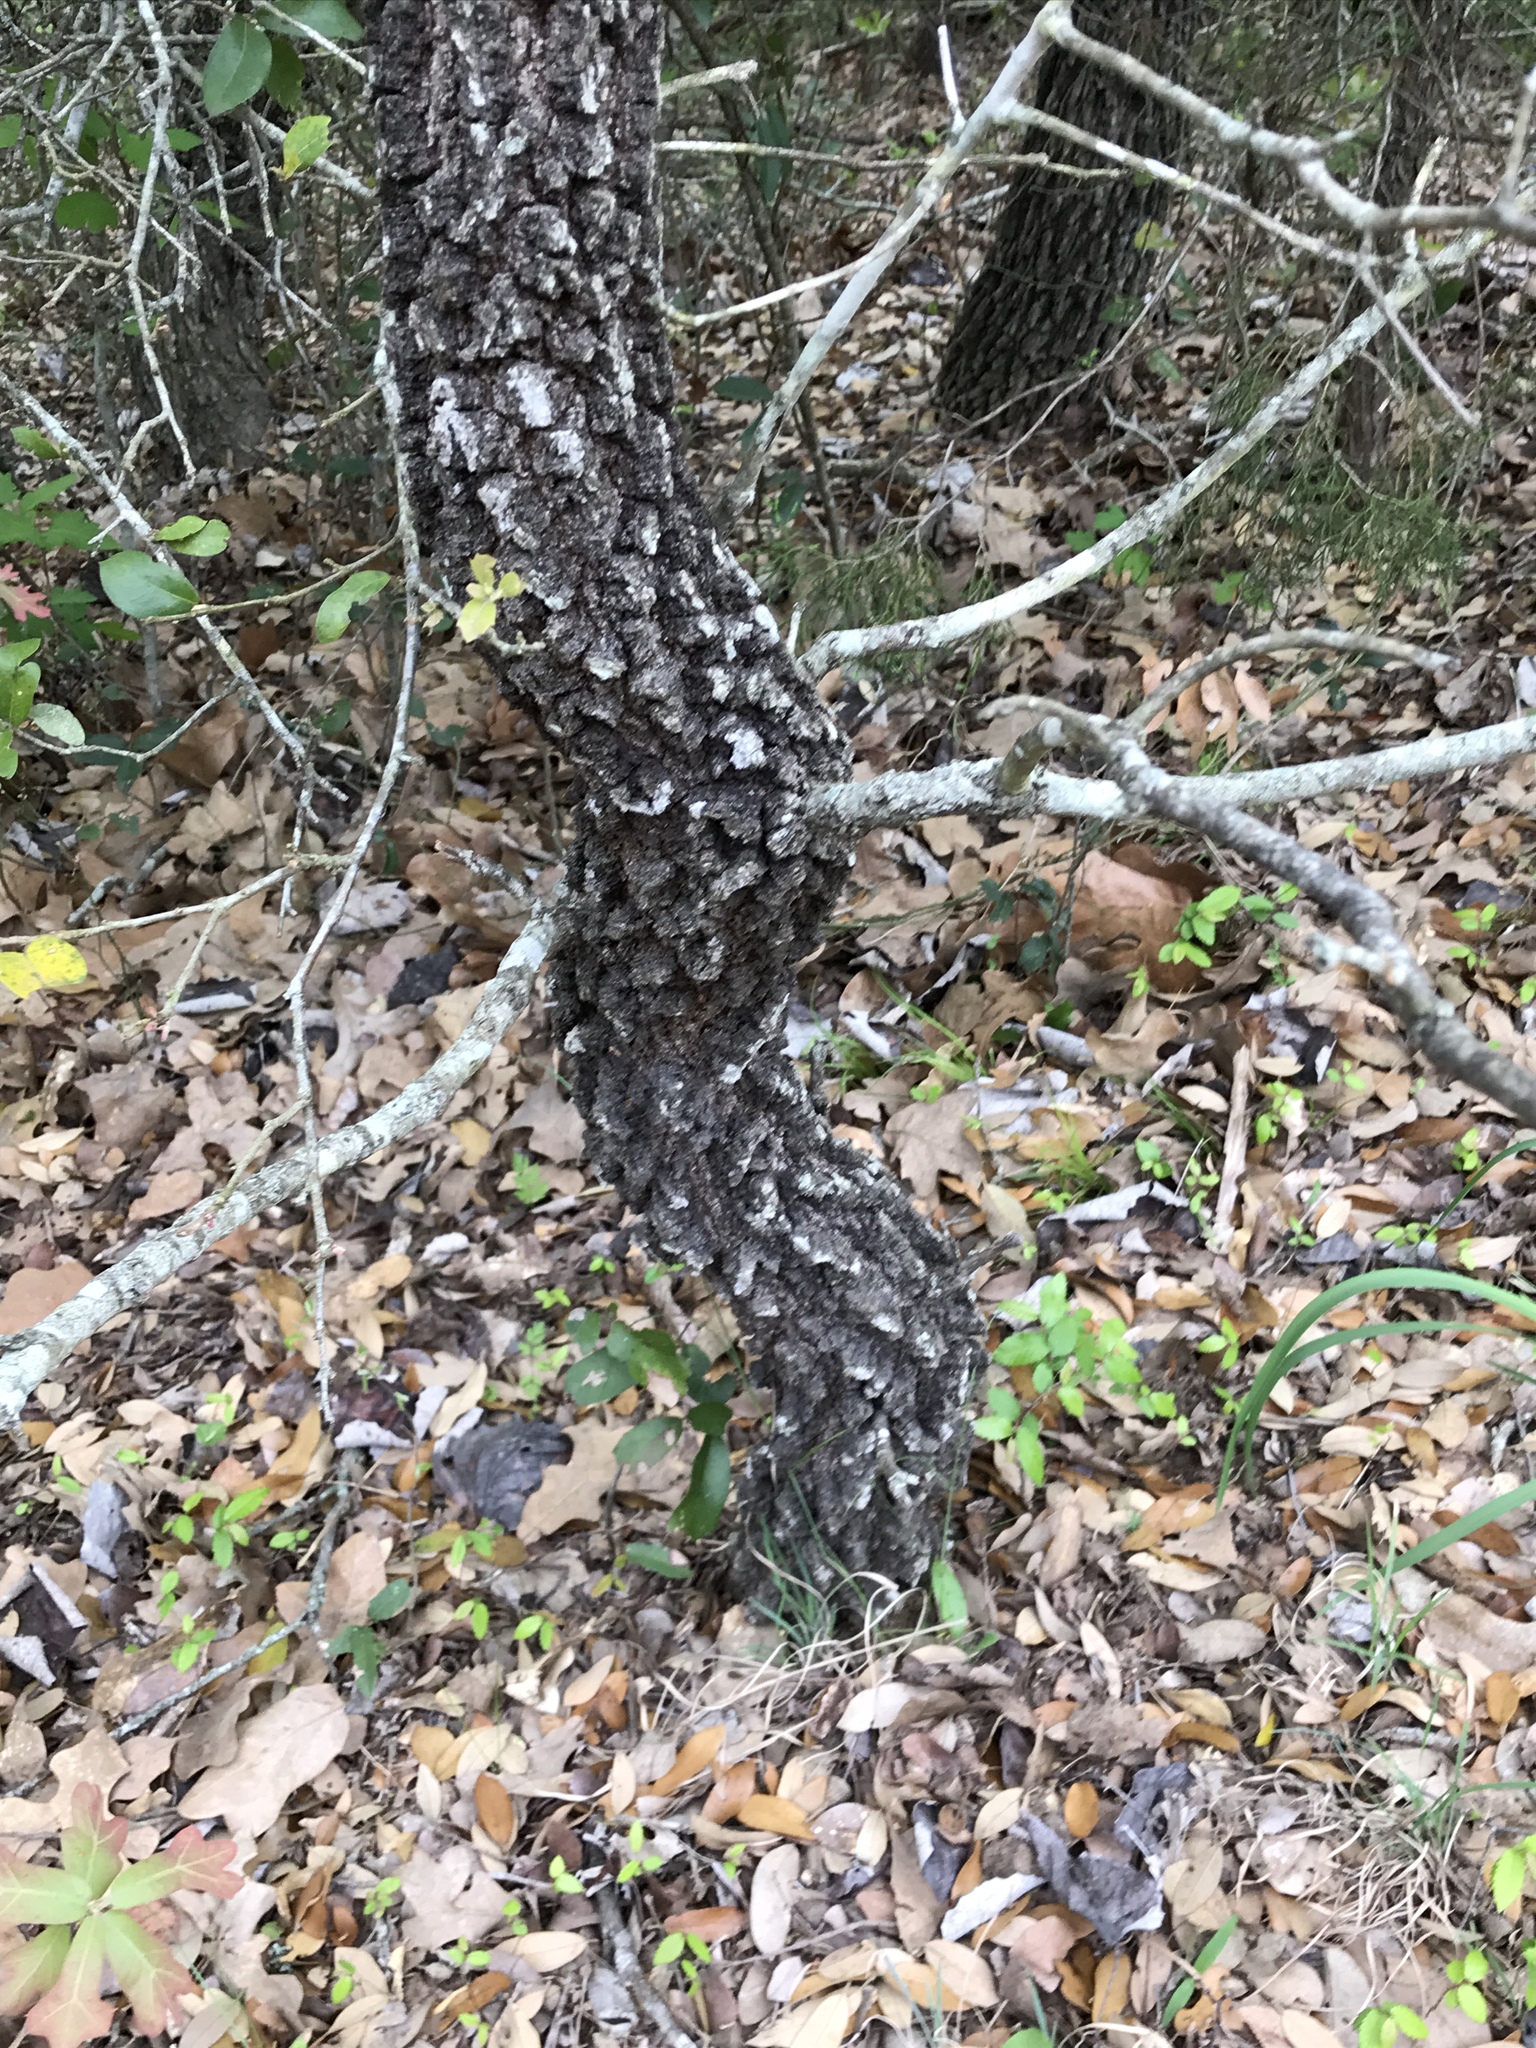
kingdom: Plantae
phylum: Tracheophyta
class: Magnoliopsida
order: Fagales
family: Fagaceae
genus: Quercus
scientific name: Quercus marilandica
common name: Blackjack oak
